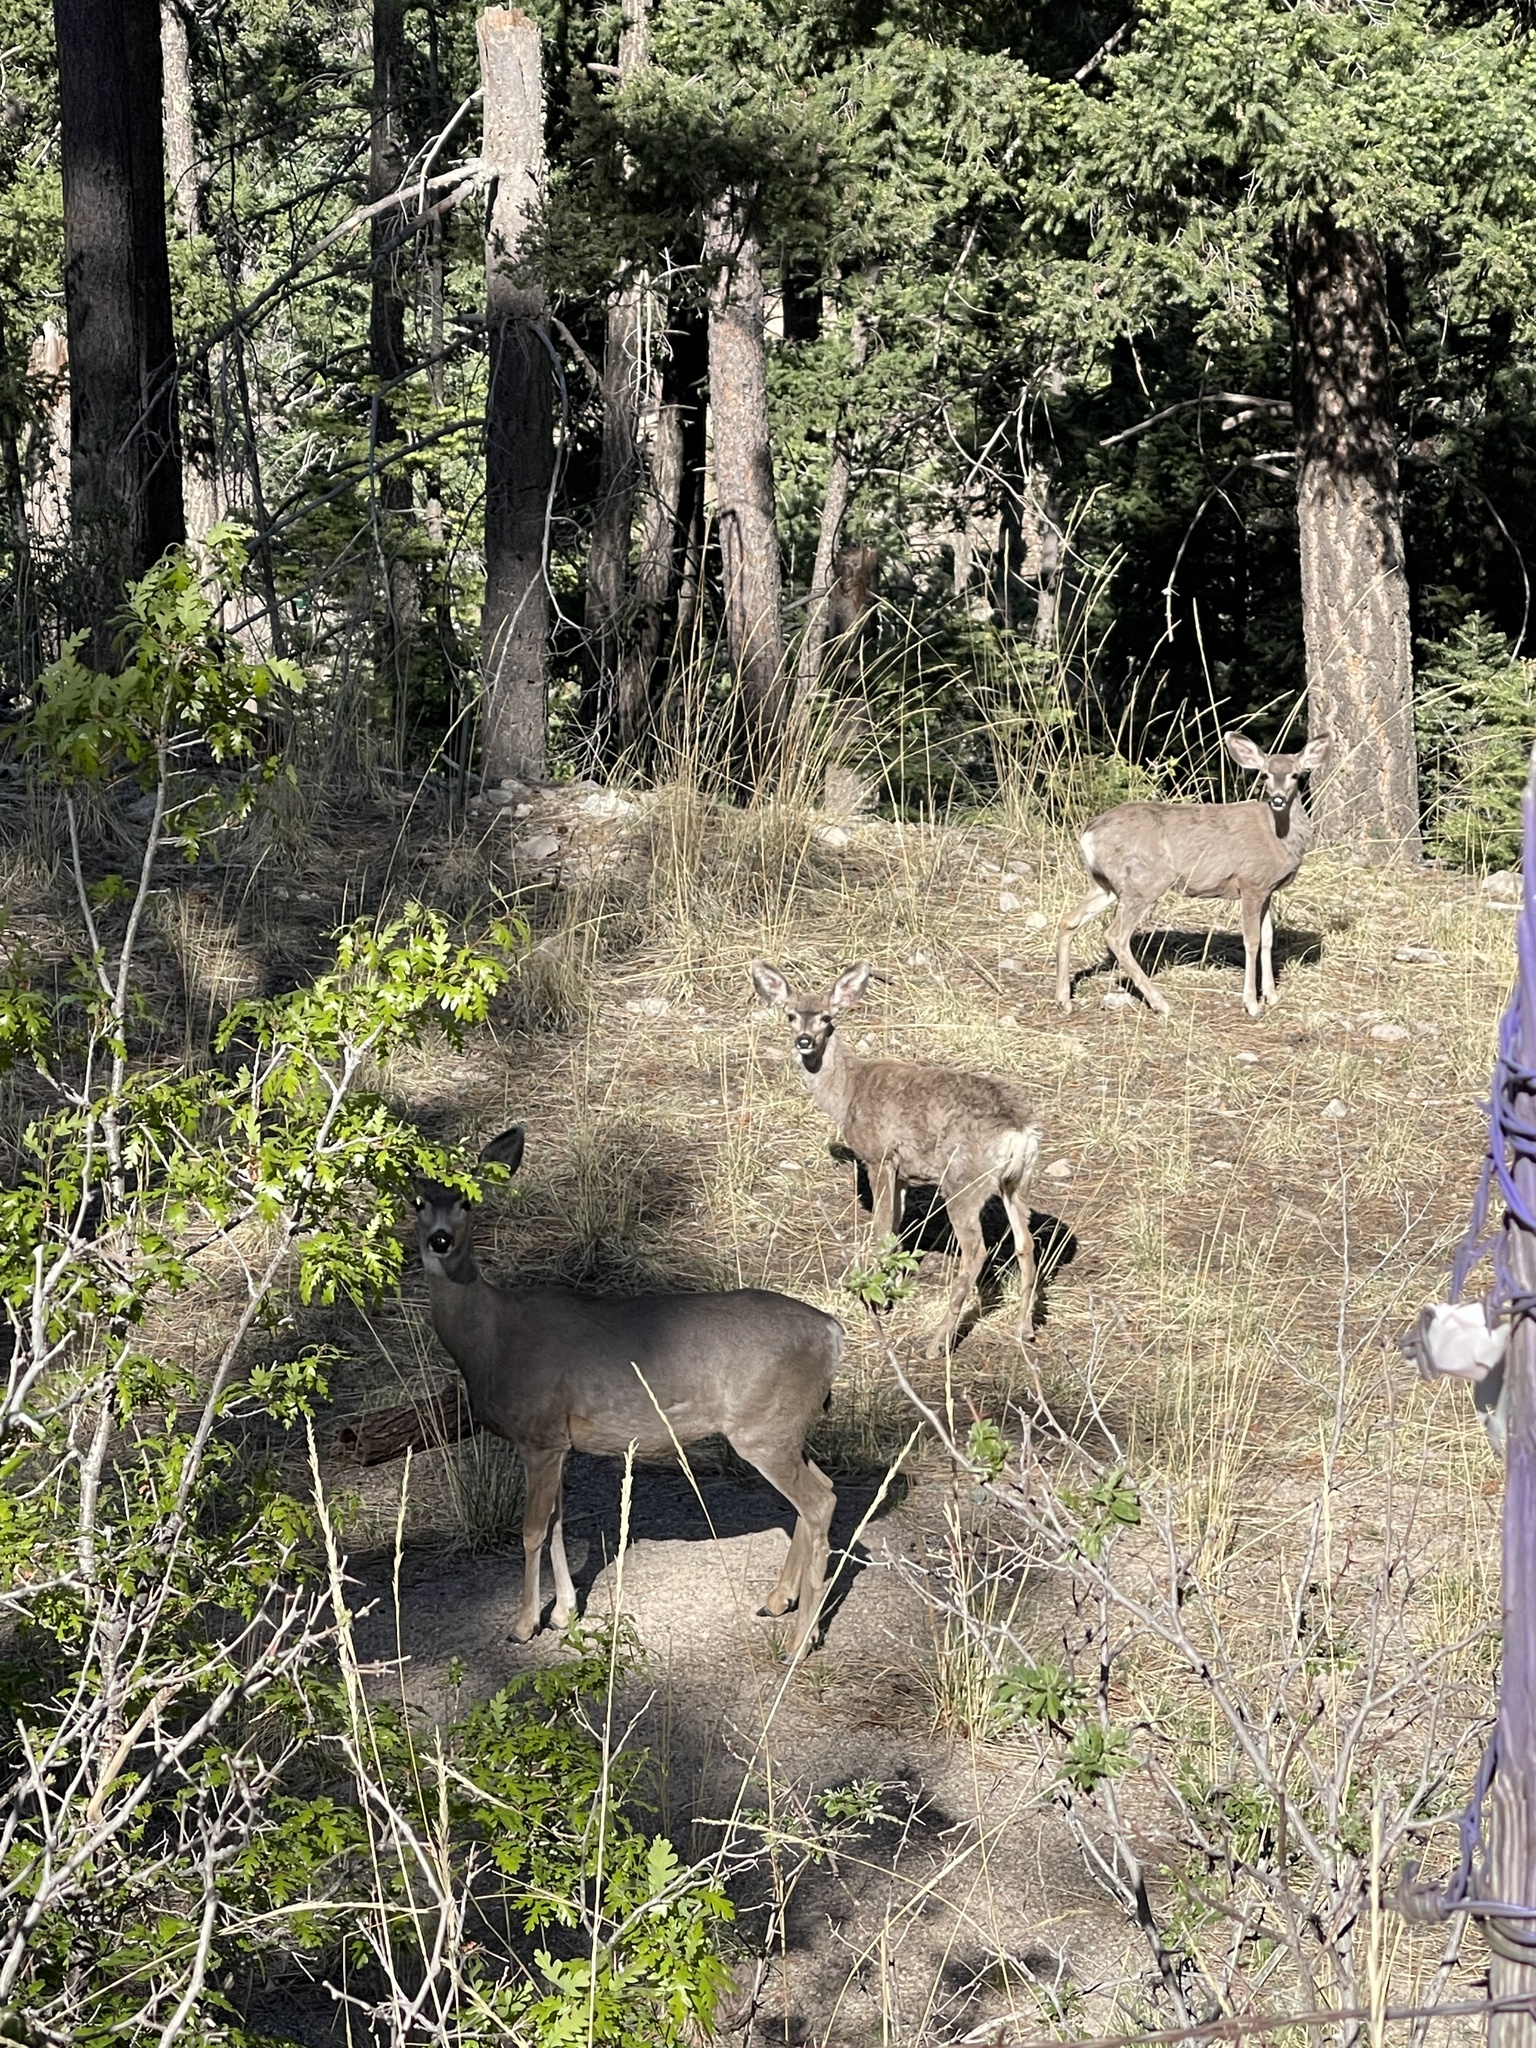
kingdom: Animalia
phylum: Chordata
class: Mammalia
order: Artiodactyla
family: Cervidae
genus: Odocoileus
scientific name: Odocoileus hemionus
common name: Mule deer
